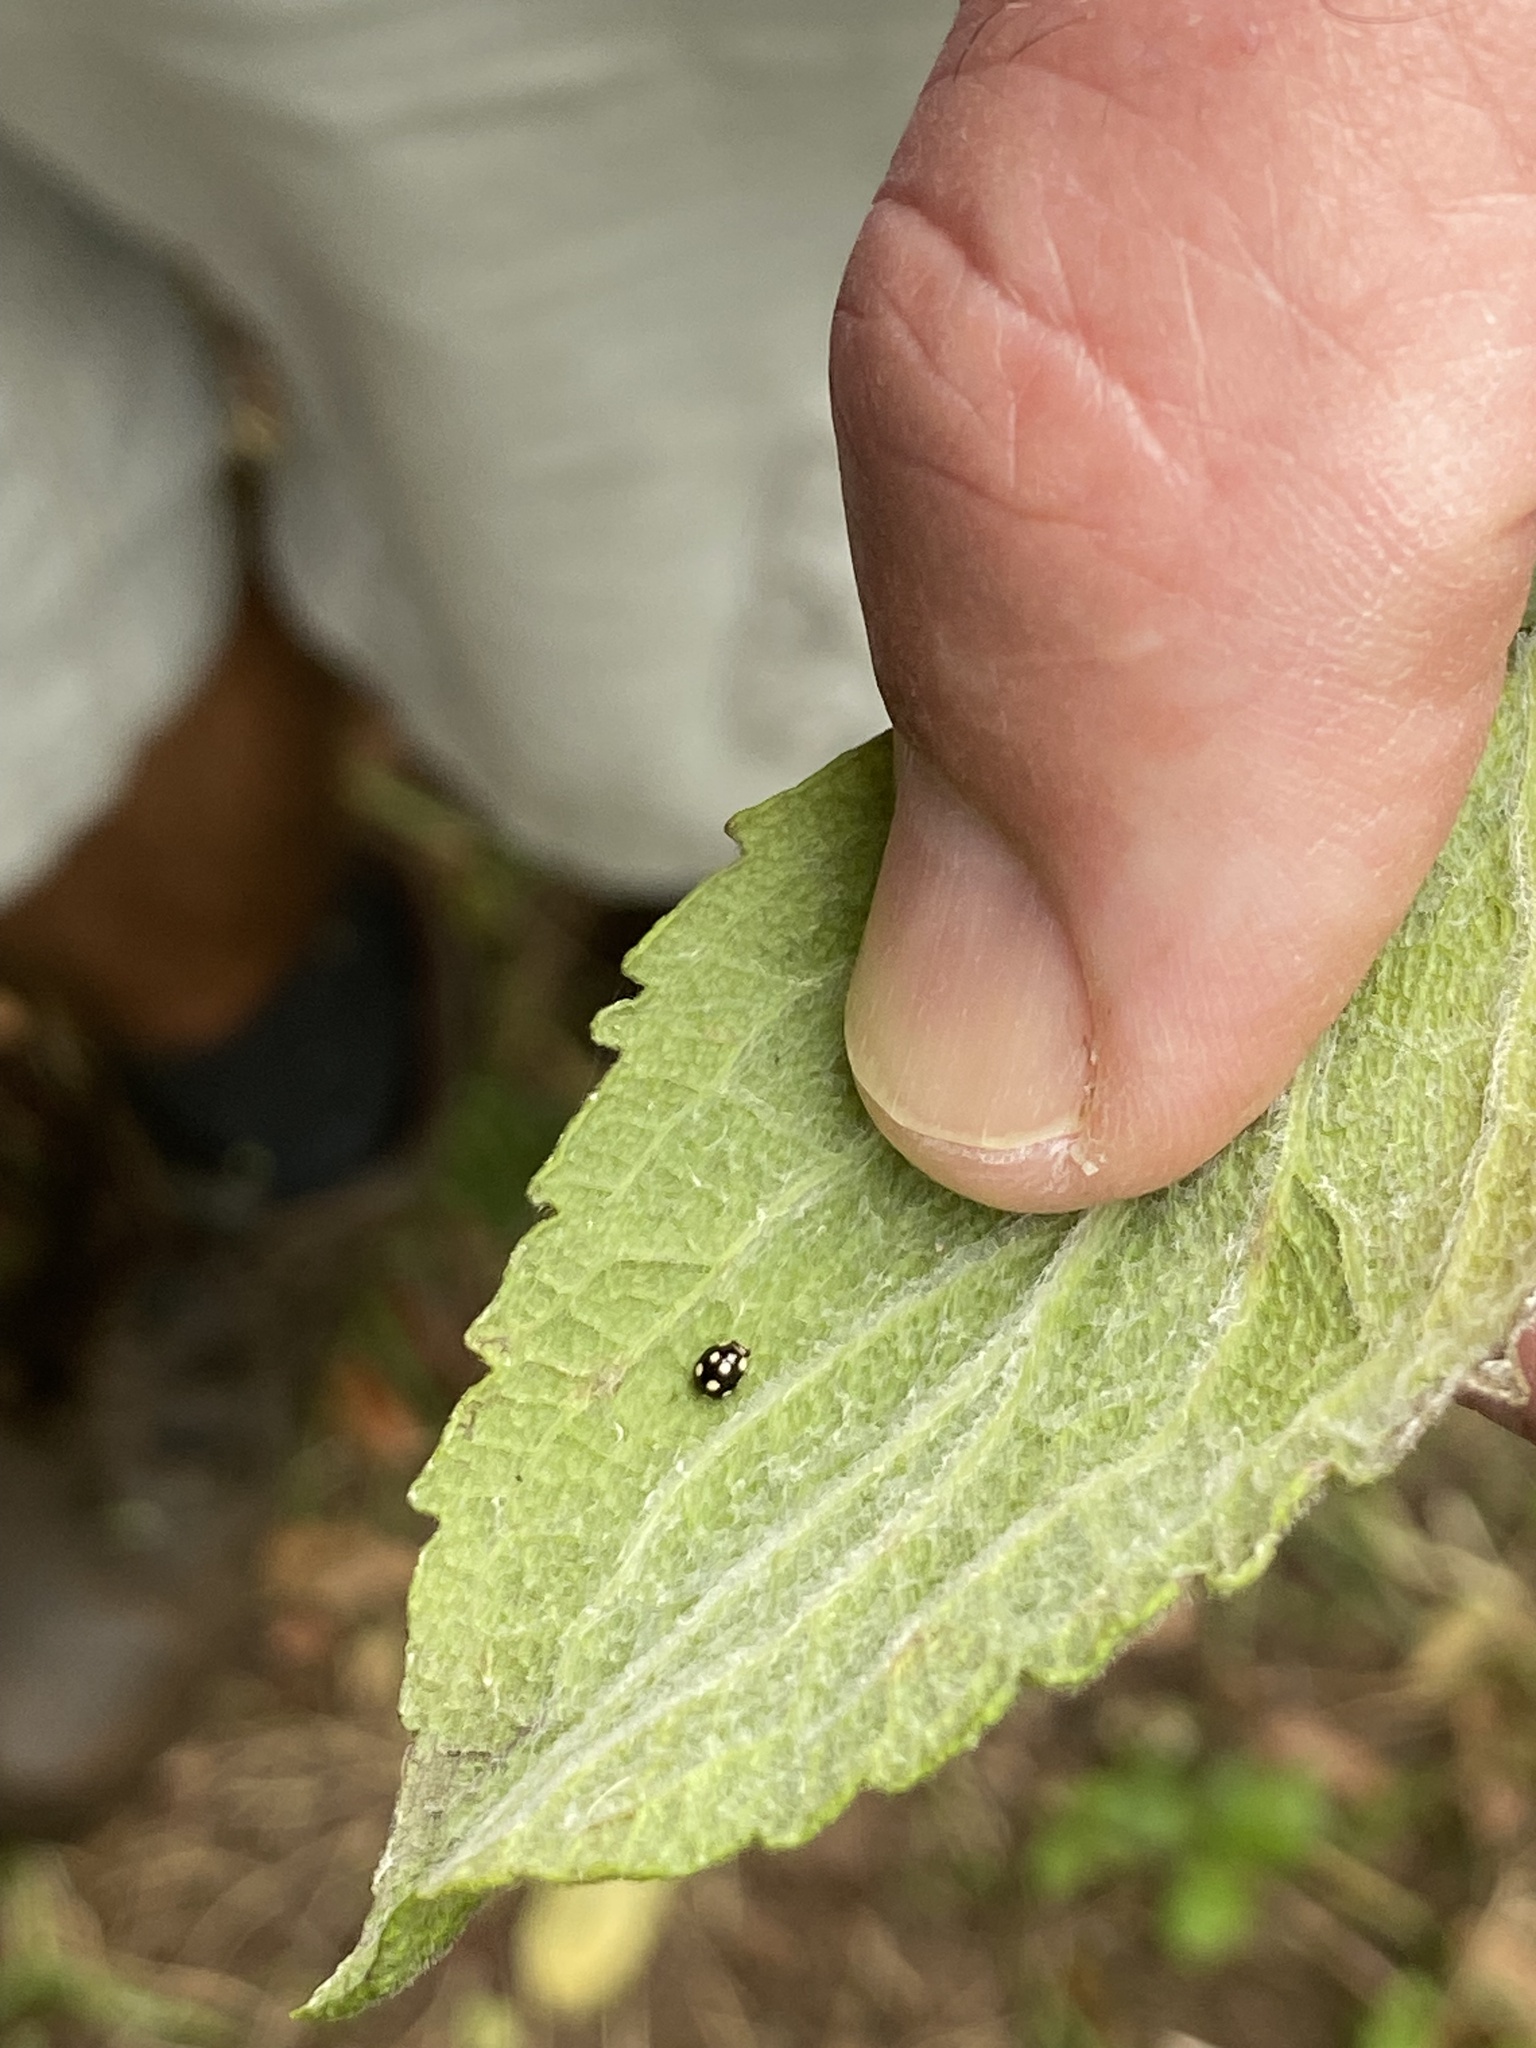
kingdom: Animalia
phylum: Arthropoda
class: Insecta
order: Coleoptera
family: Coccinellidae
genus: Hyperaspis
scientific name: Hyperaspis pantherina
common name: Lady beetle
